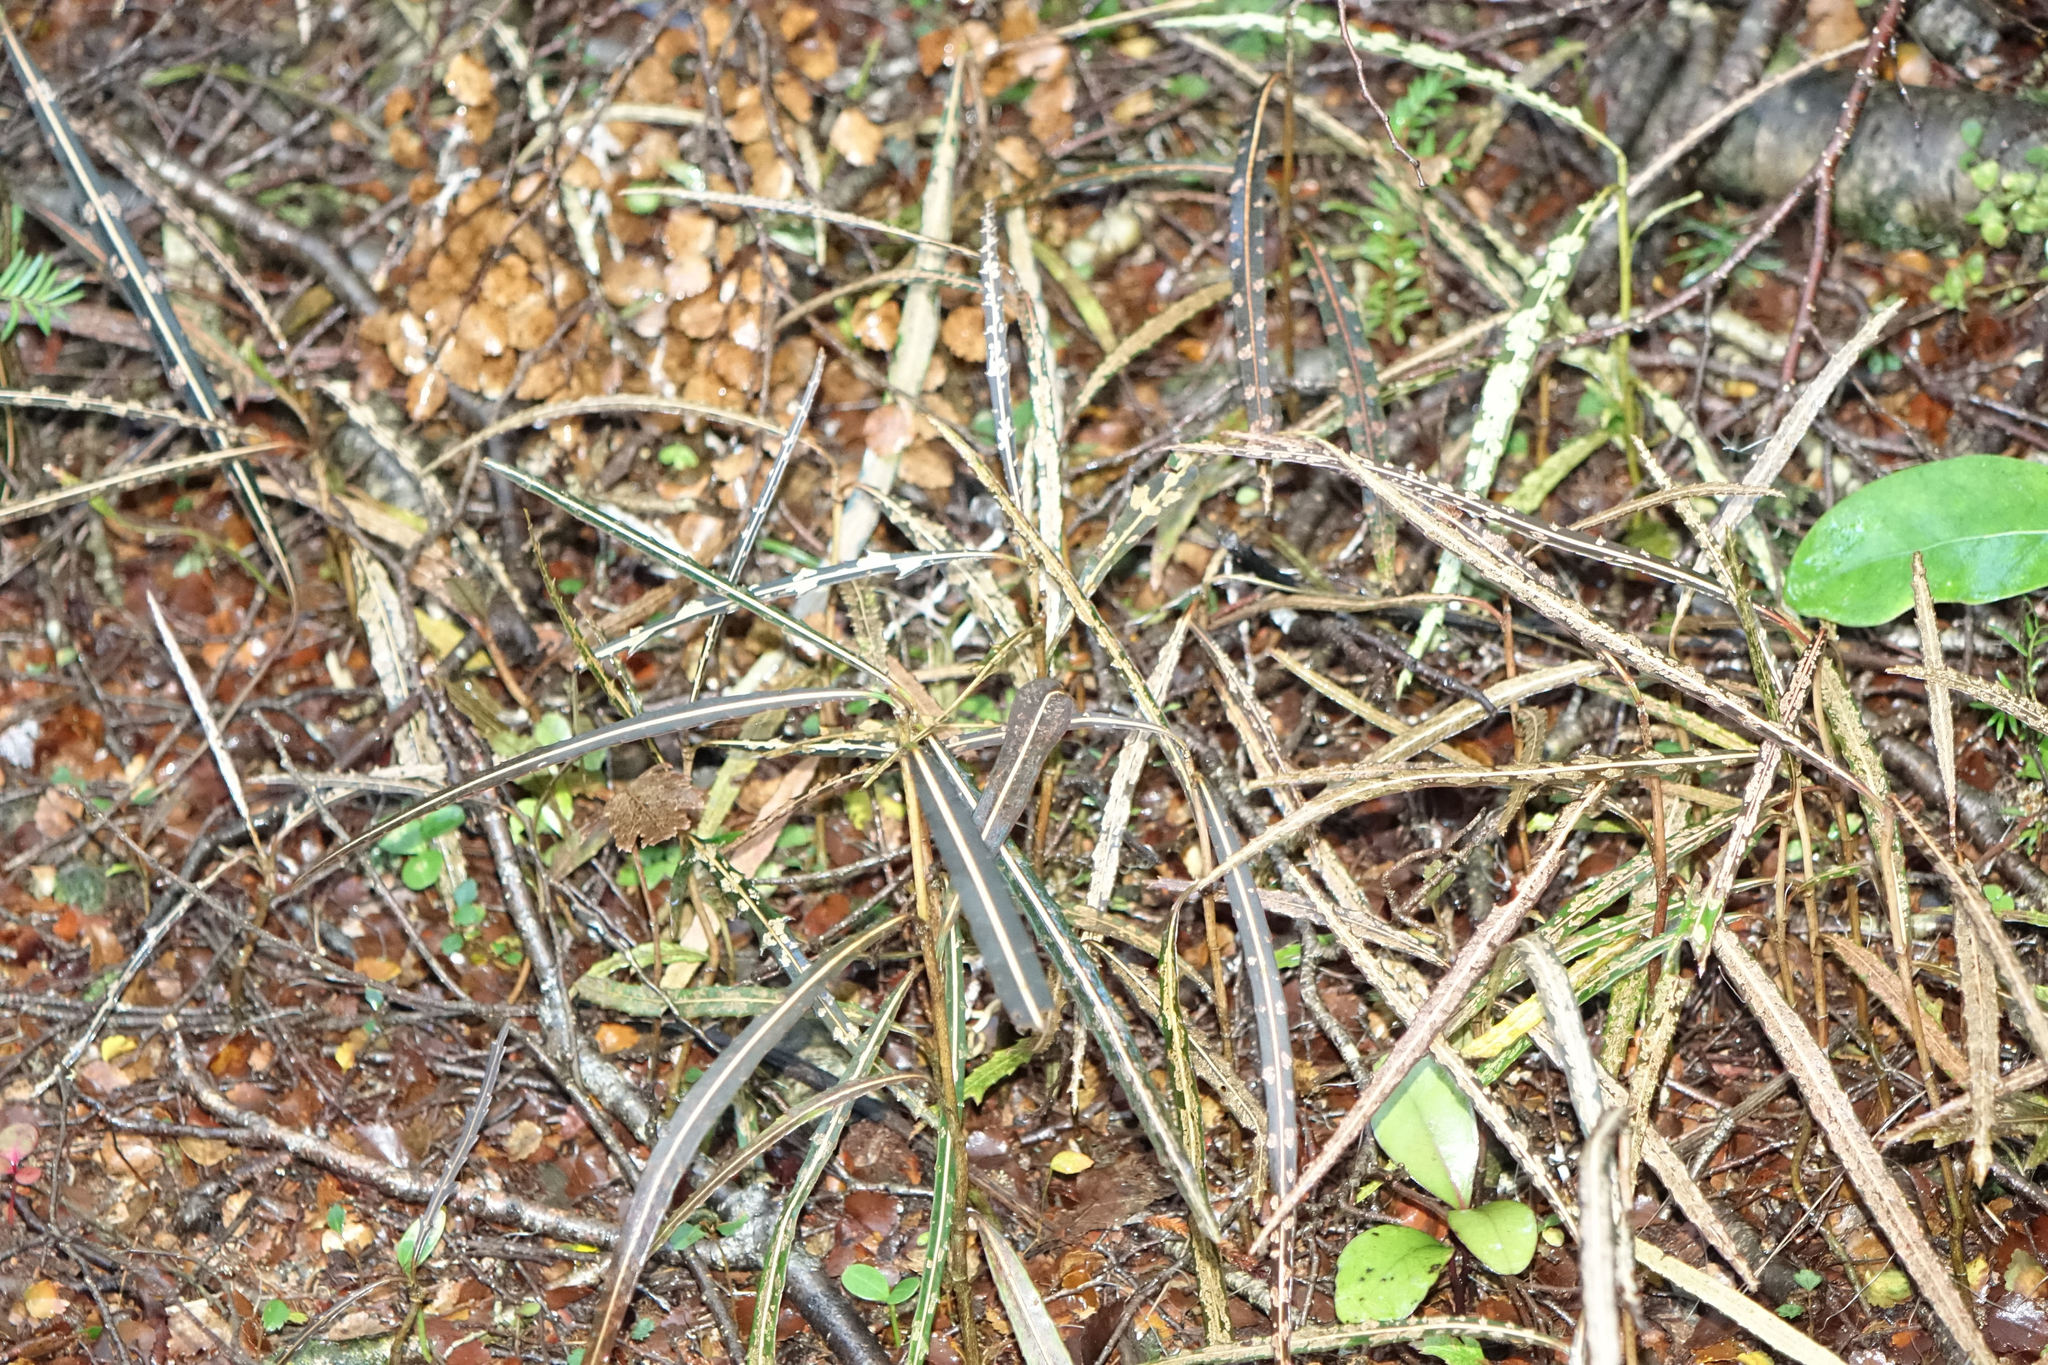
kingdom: Plantae
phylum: Tracheophyta
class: Magnoliopsida
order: Apiales
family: Araliaceae
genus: Pseudopanax
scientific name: Pseudopanax crassifolius
